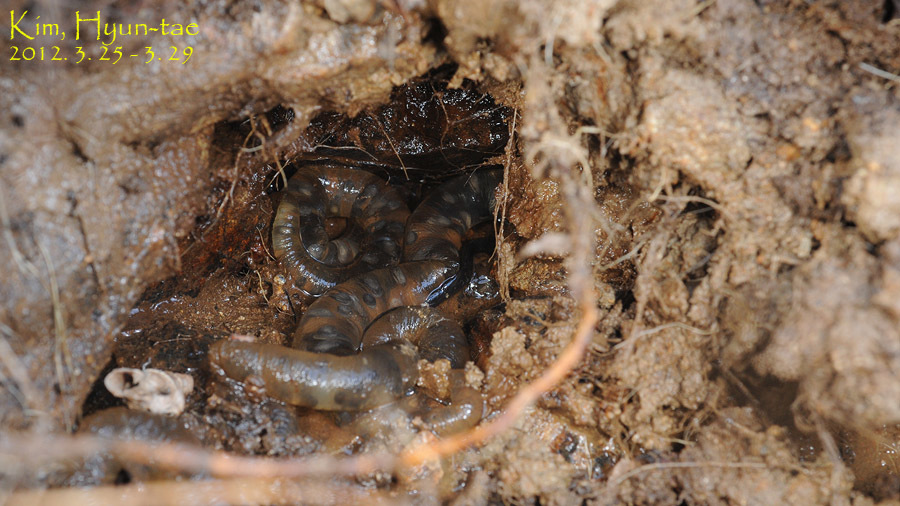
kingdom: Animalia
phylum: Chordata
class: Amphibia
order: Caudata
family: Hynobiidae
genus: Hynobius
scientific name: Hynobius unisacculus
